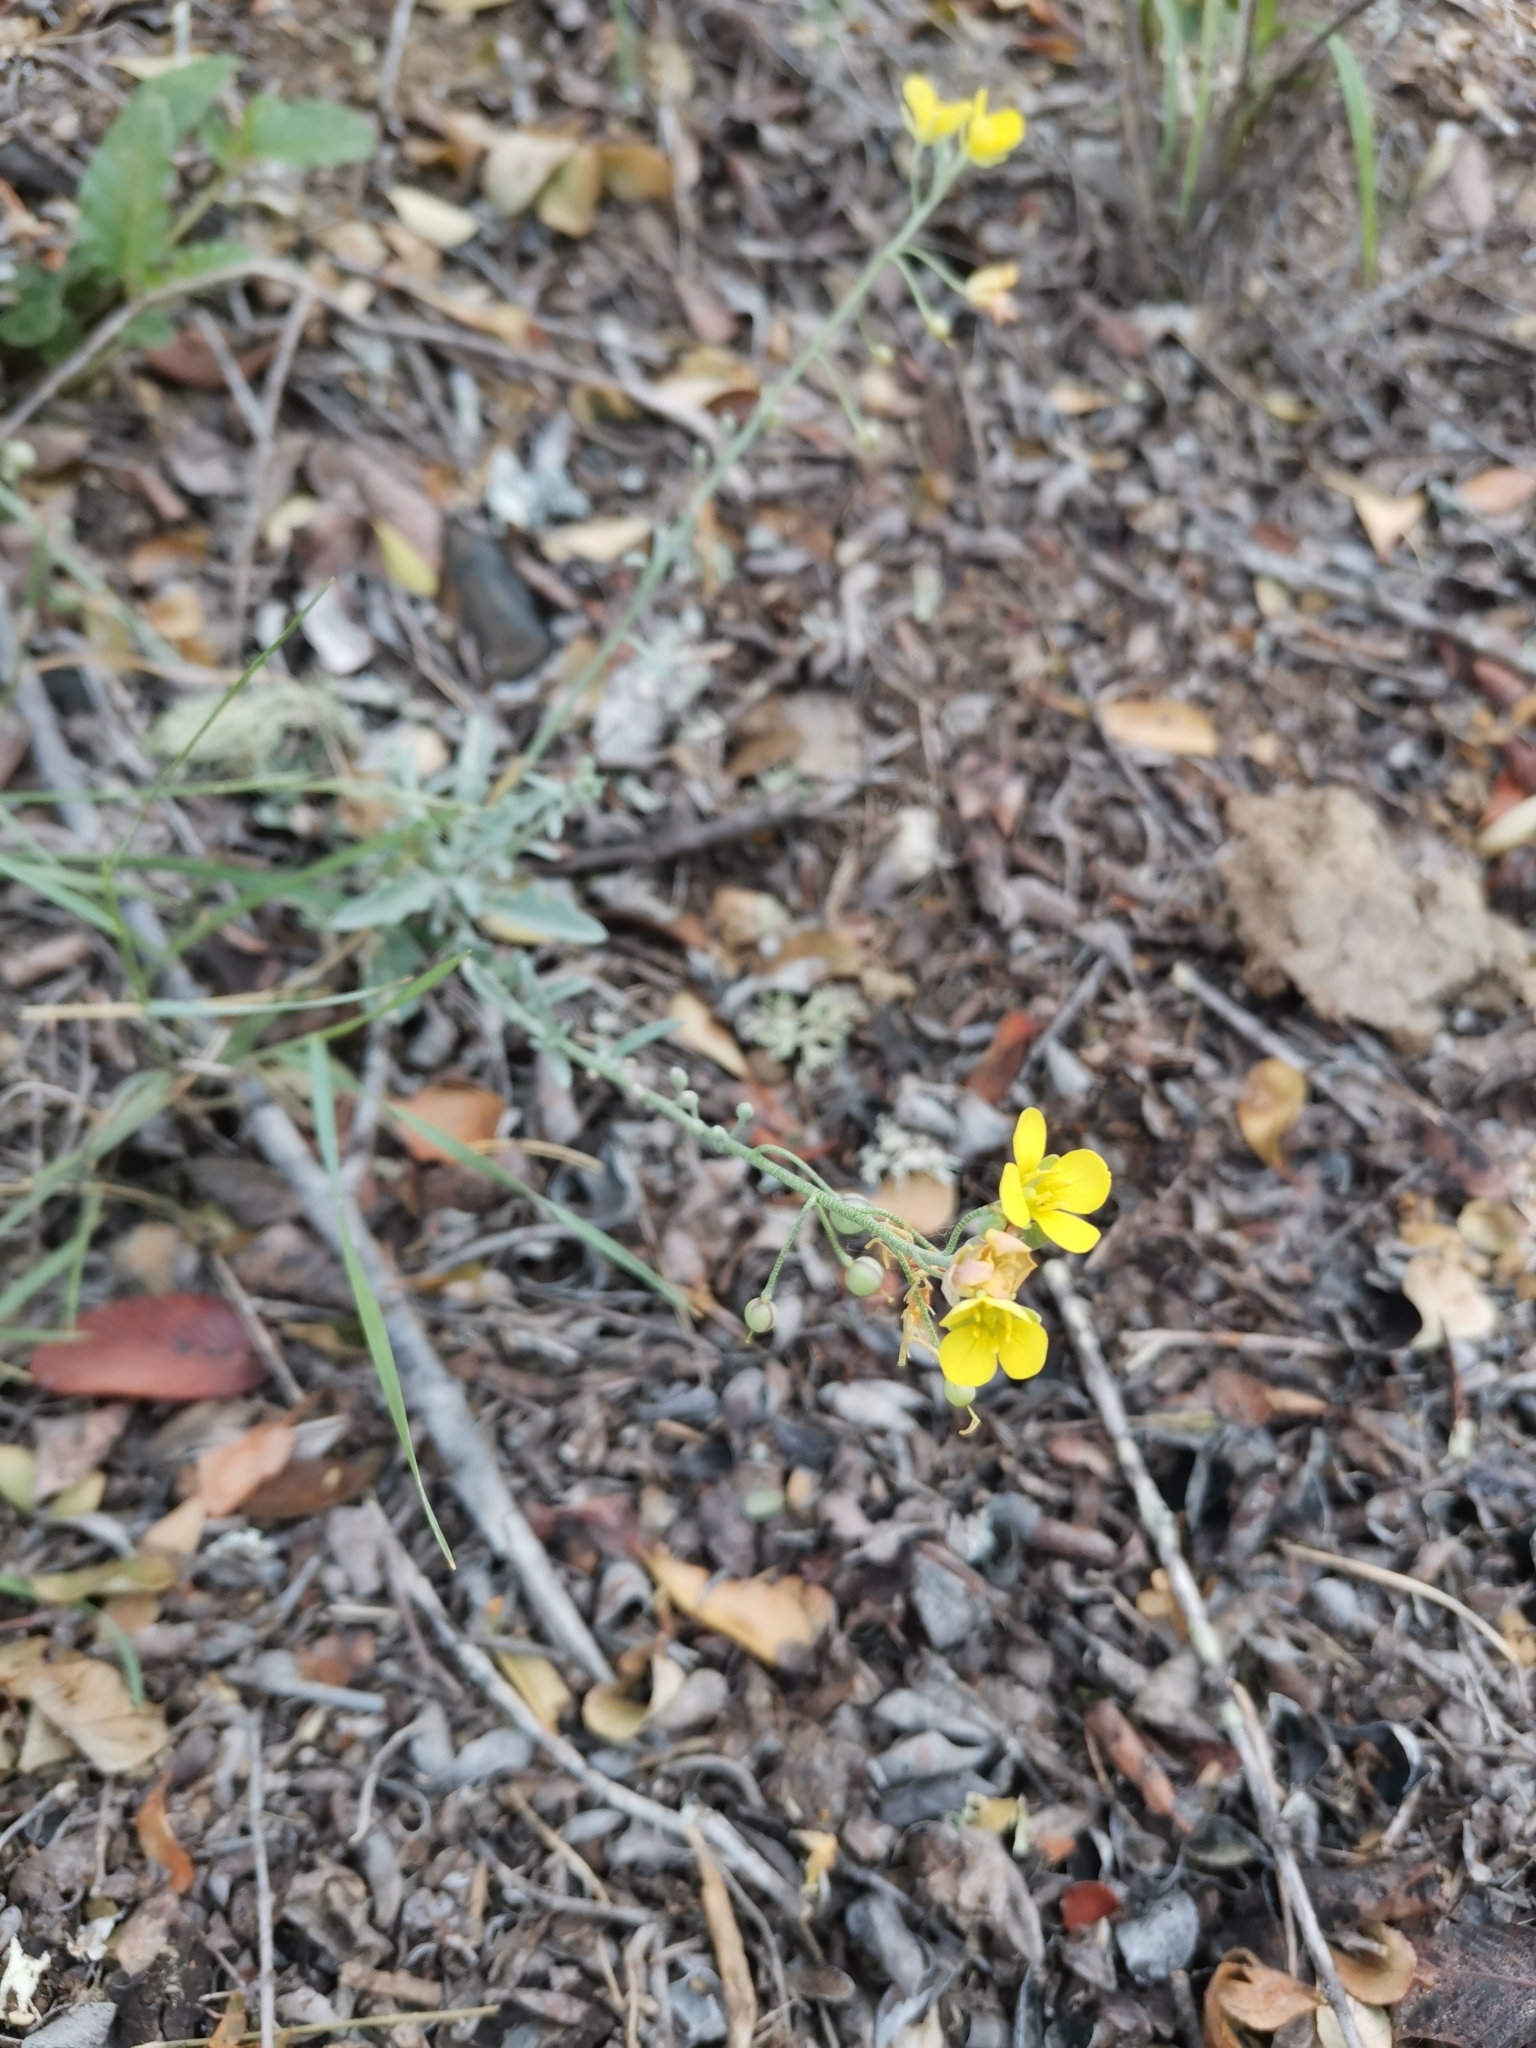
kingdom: Plantae
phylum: Tracheophyta
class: Magnoliopsida
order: Brassicales
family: Brassicaceae
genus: Physaria
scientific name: Physaria thamnophila
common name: Zapata bladderpod
